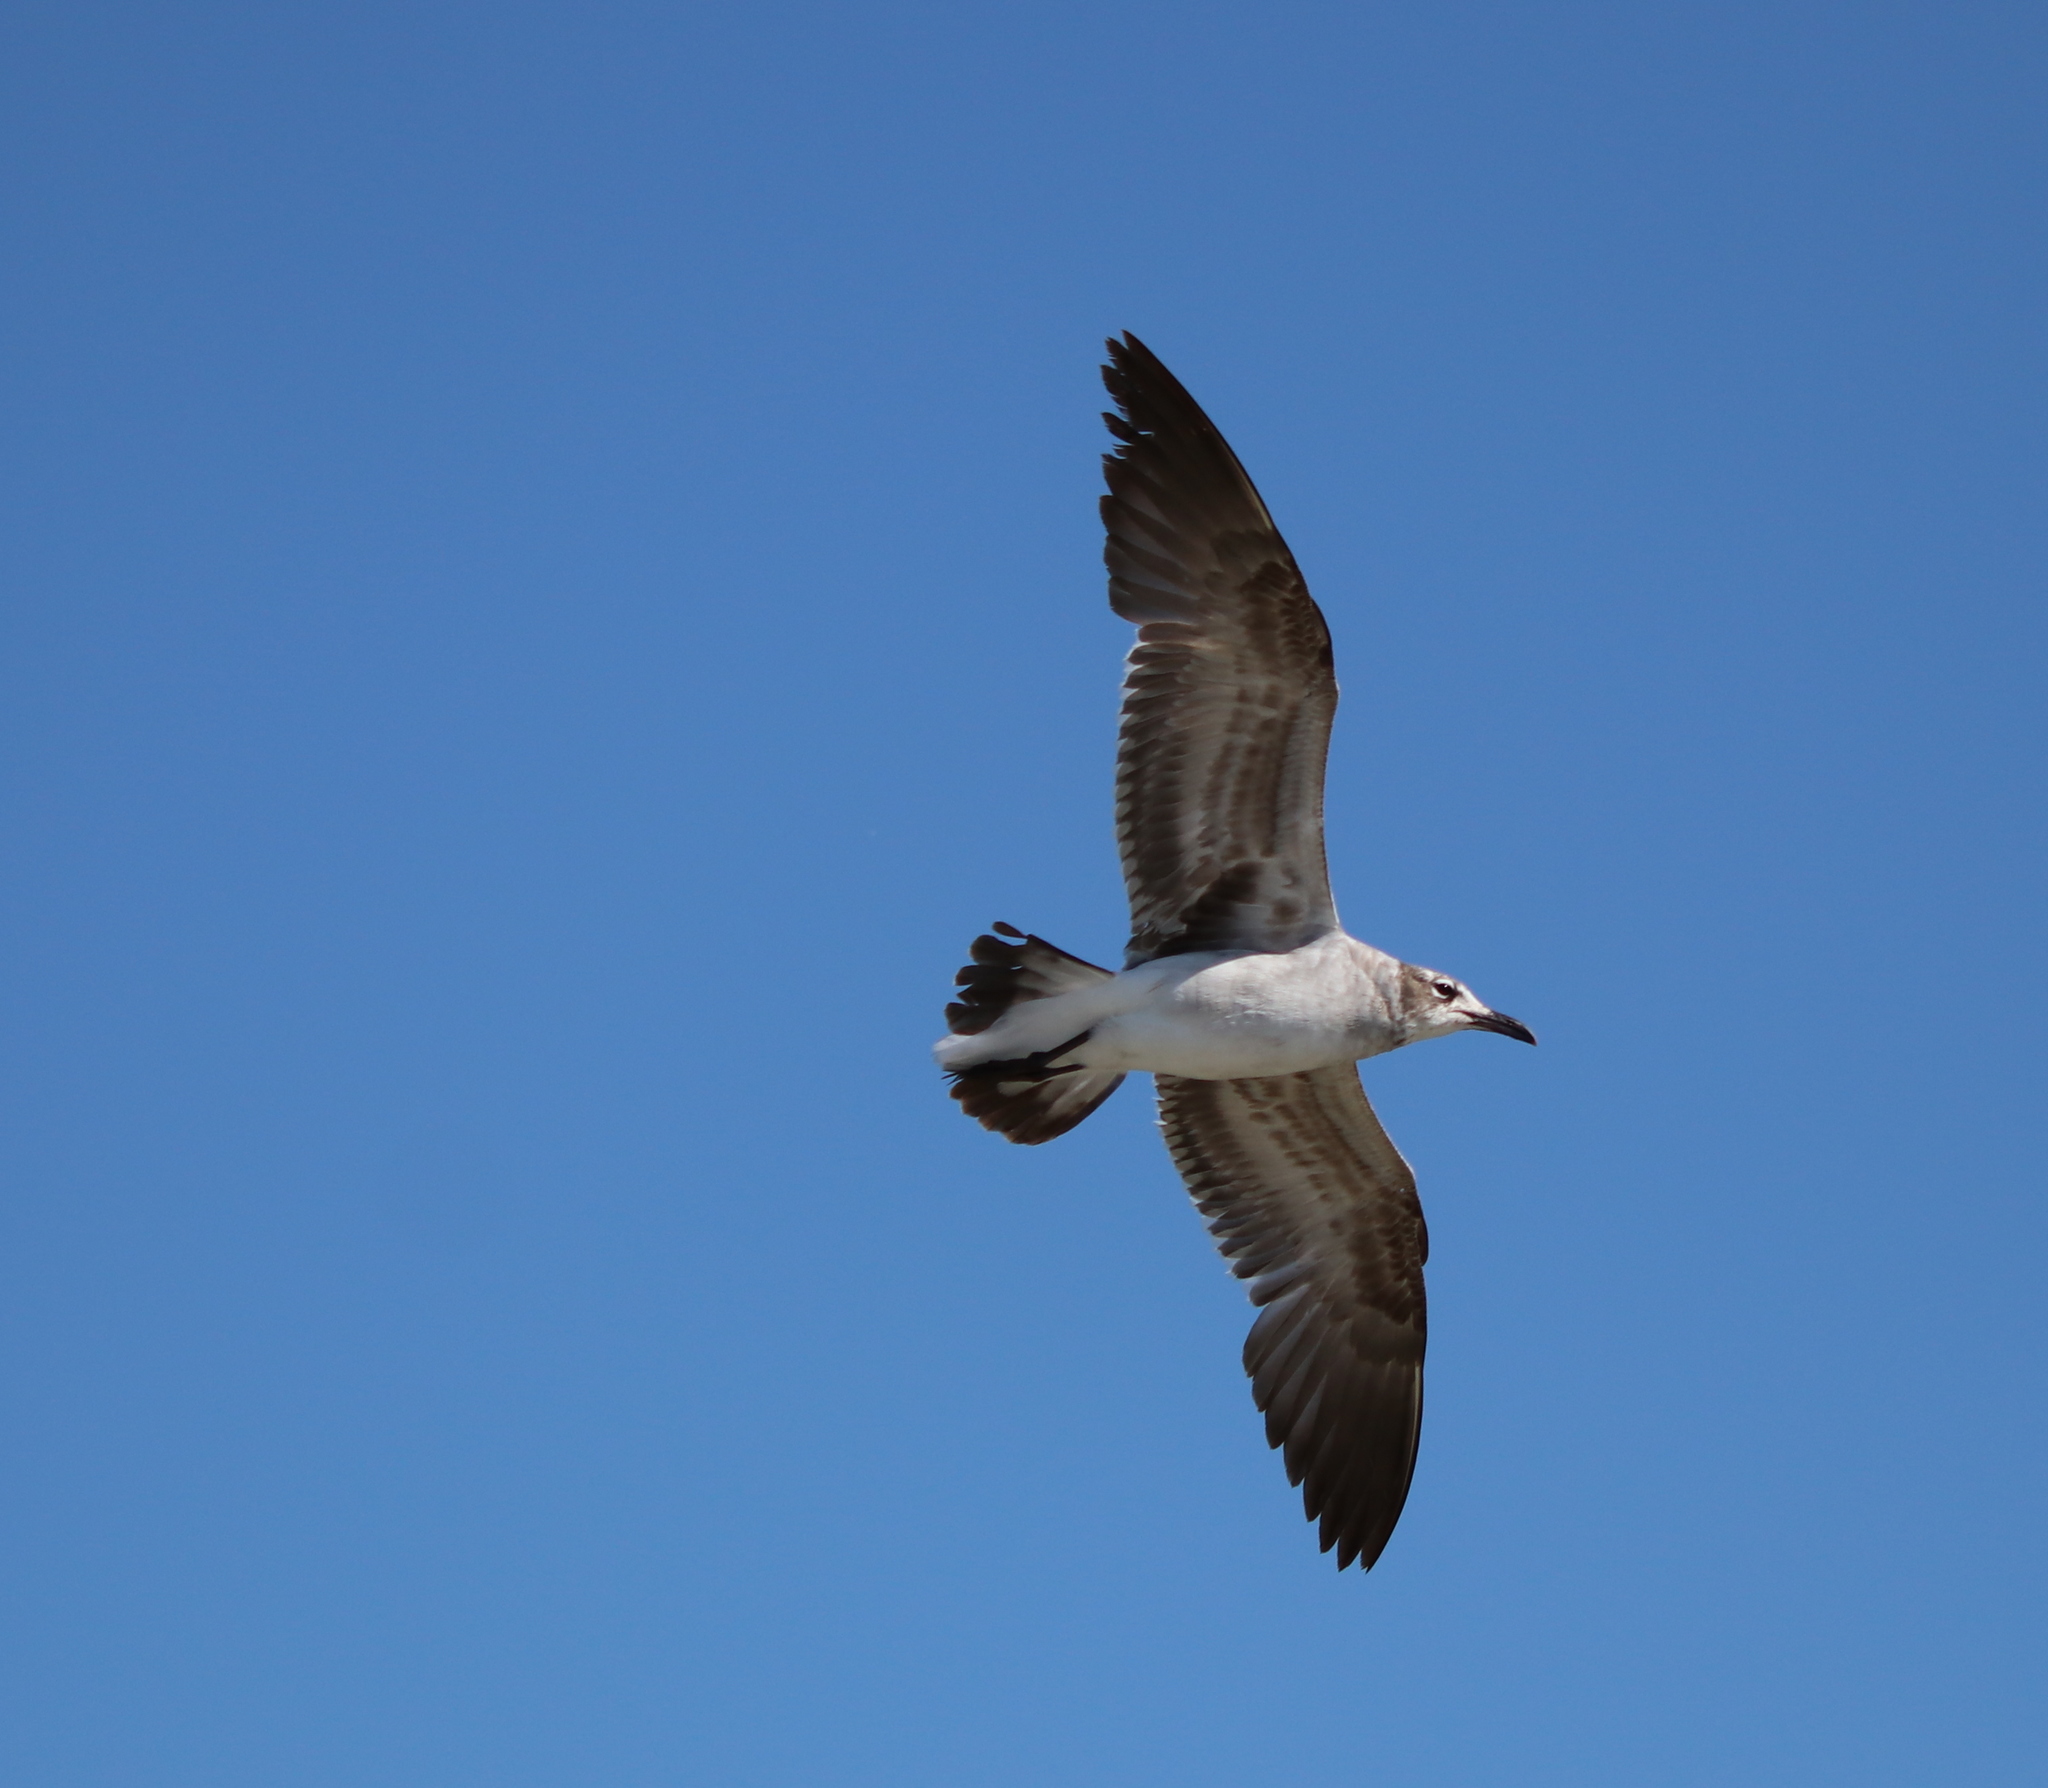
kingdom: Animalia
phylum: Chordata
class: Aves
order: Charadriiformes
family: Laridae
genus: Leucophaeus
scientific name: Leucophaeus atricilla
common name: Laughing gull
